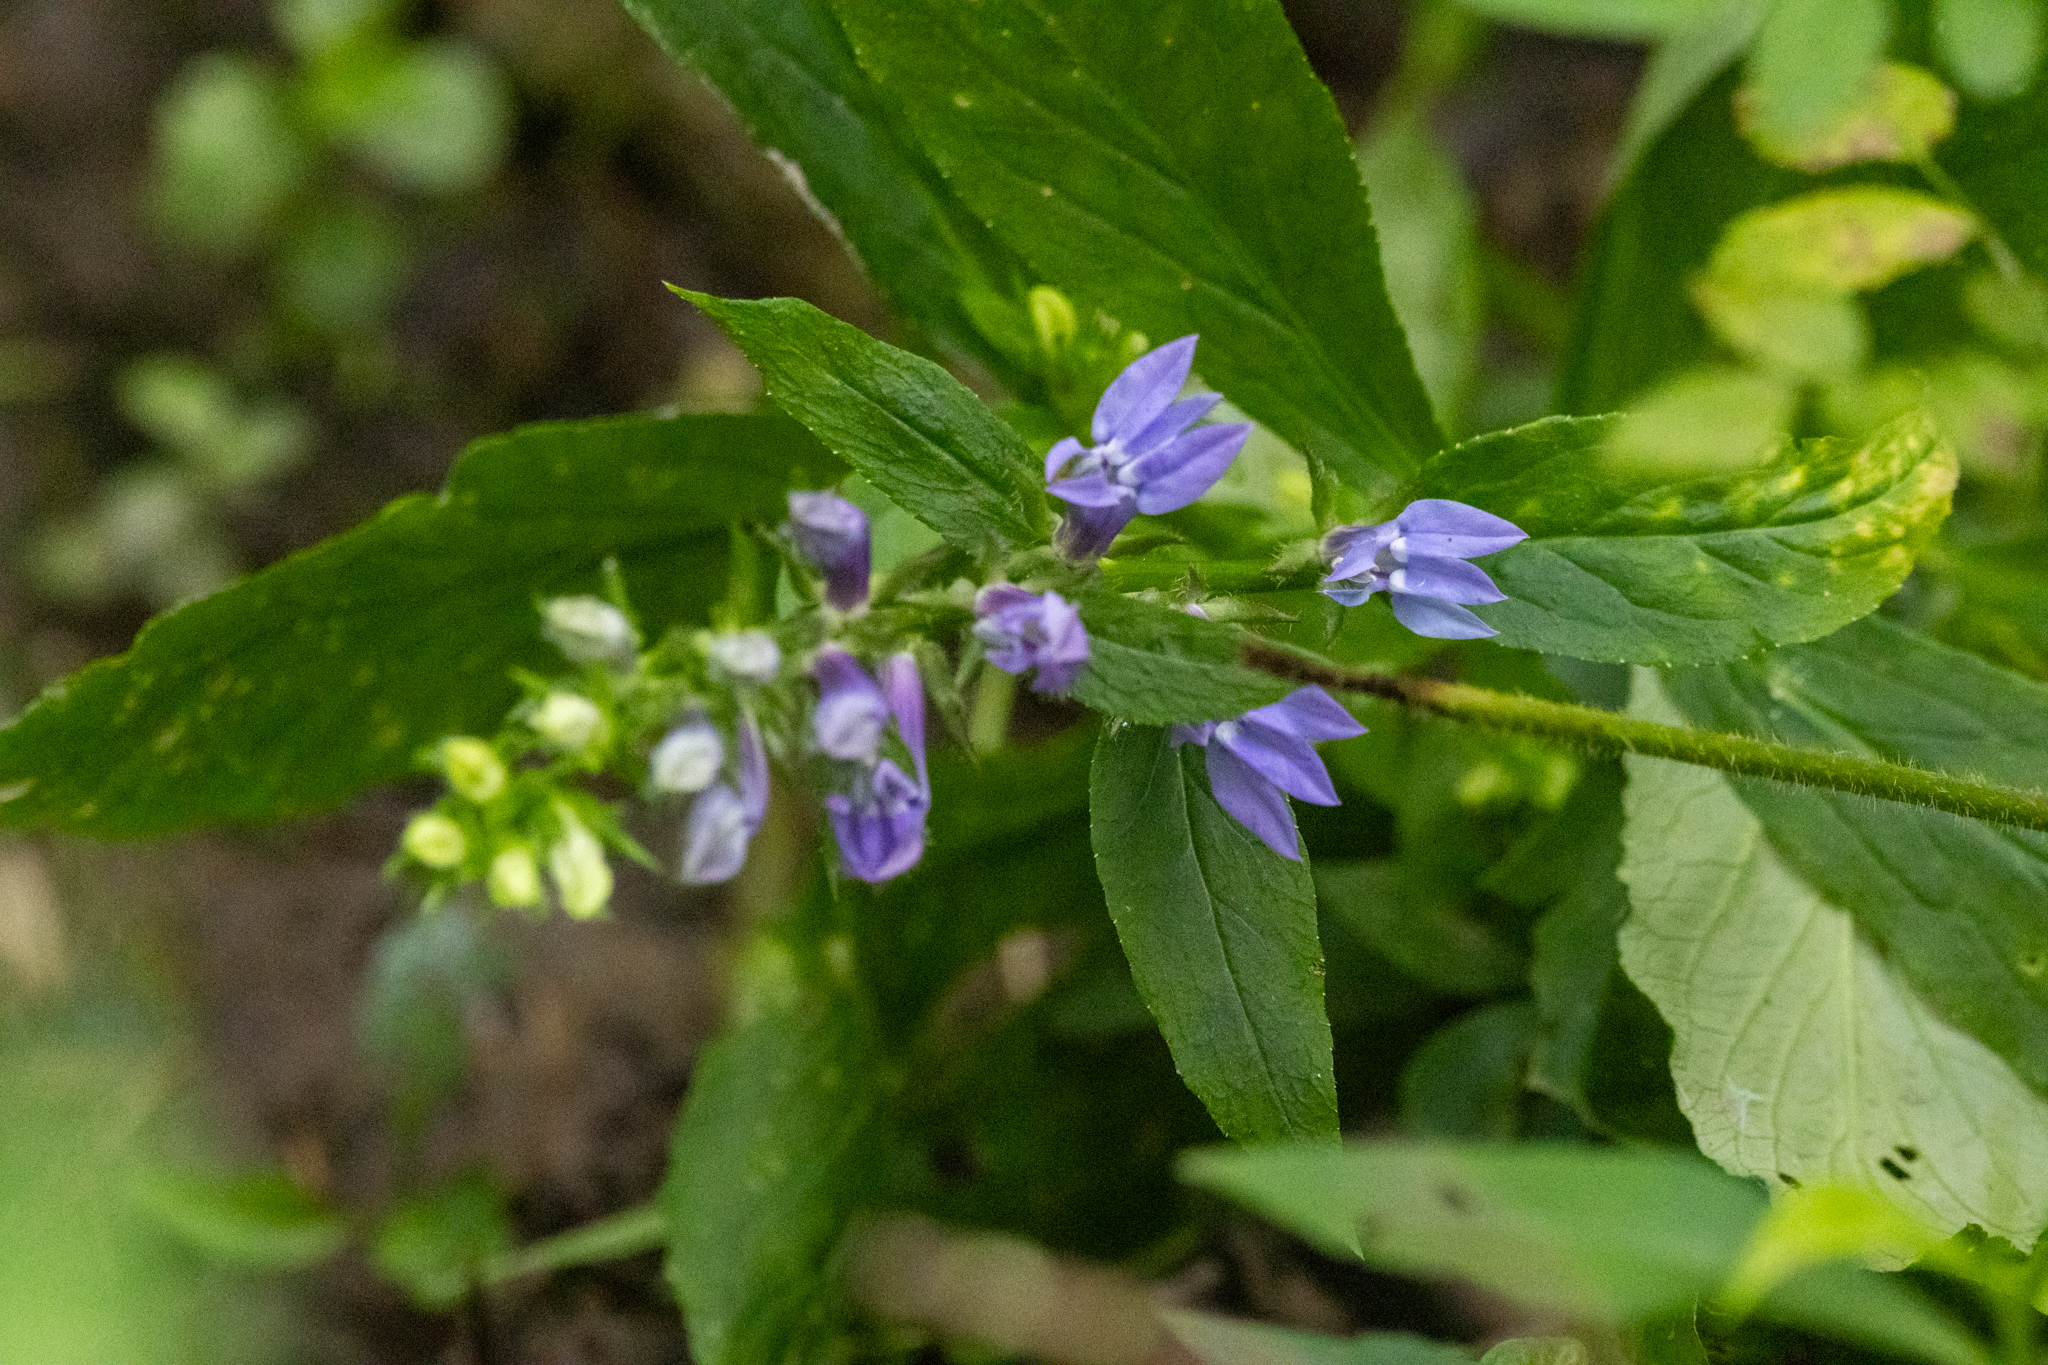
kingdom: Plantae
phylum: Tracheophyta
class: Magnoliopsida
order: Asterales
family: Campanulaceae
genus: Lobelia
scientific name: Lobelia siphilitica
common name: Great lobelia
